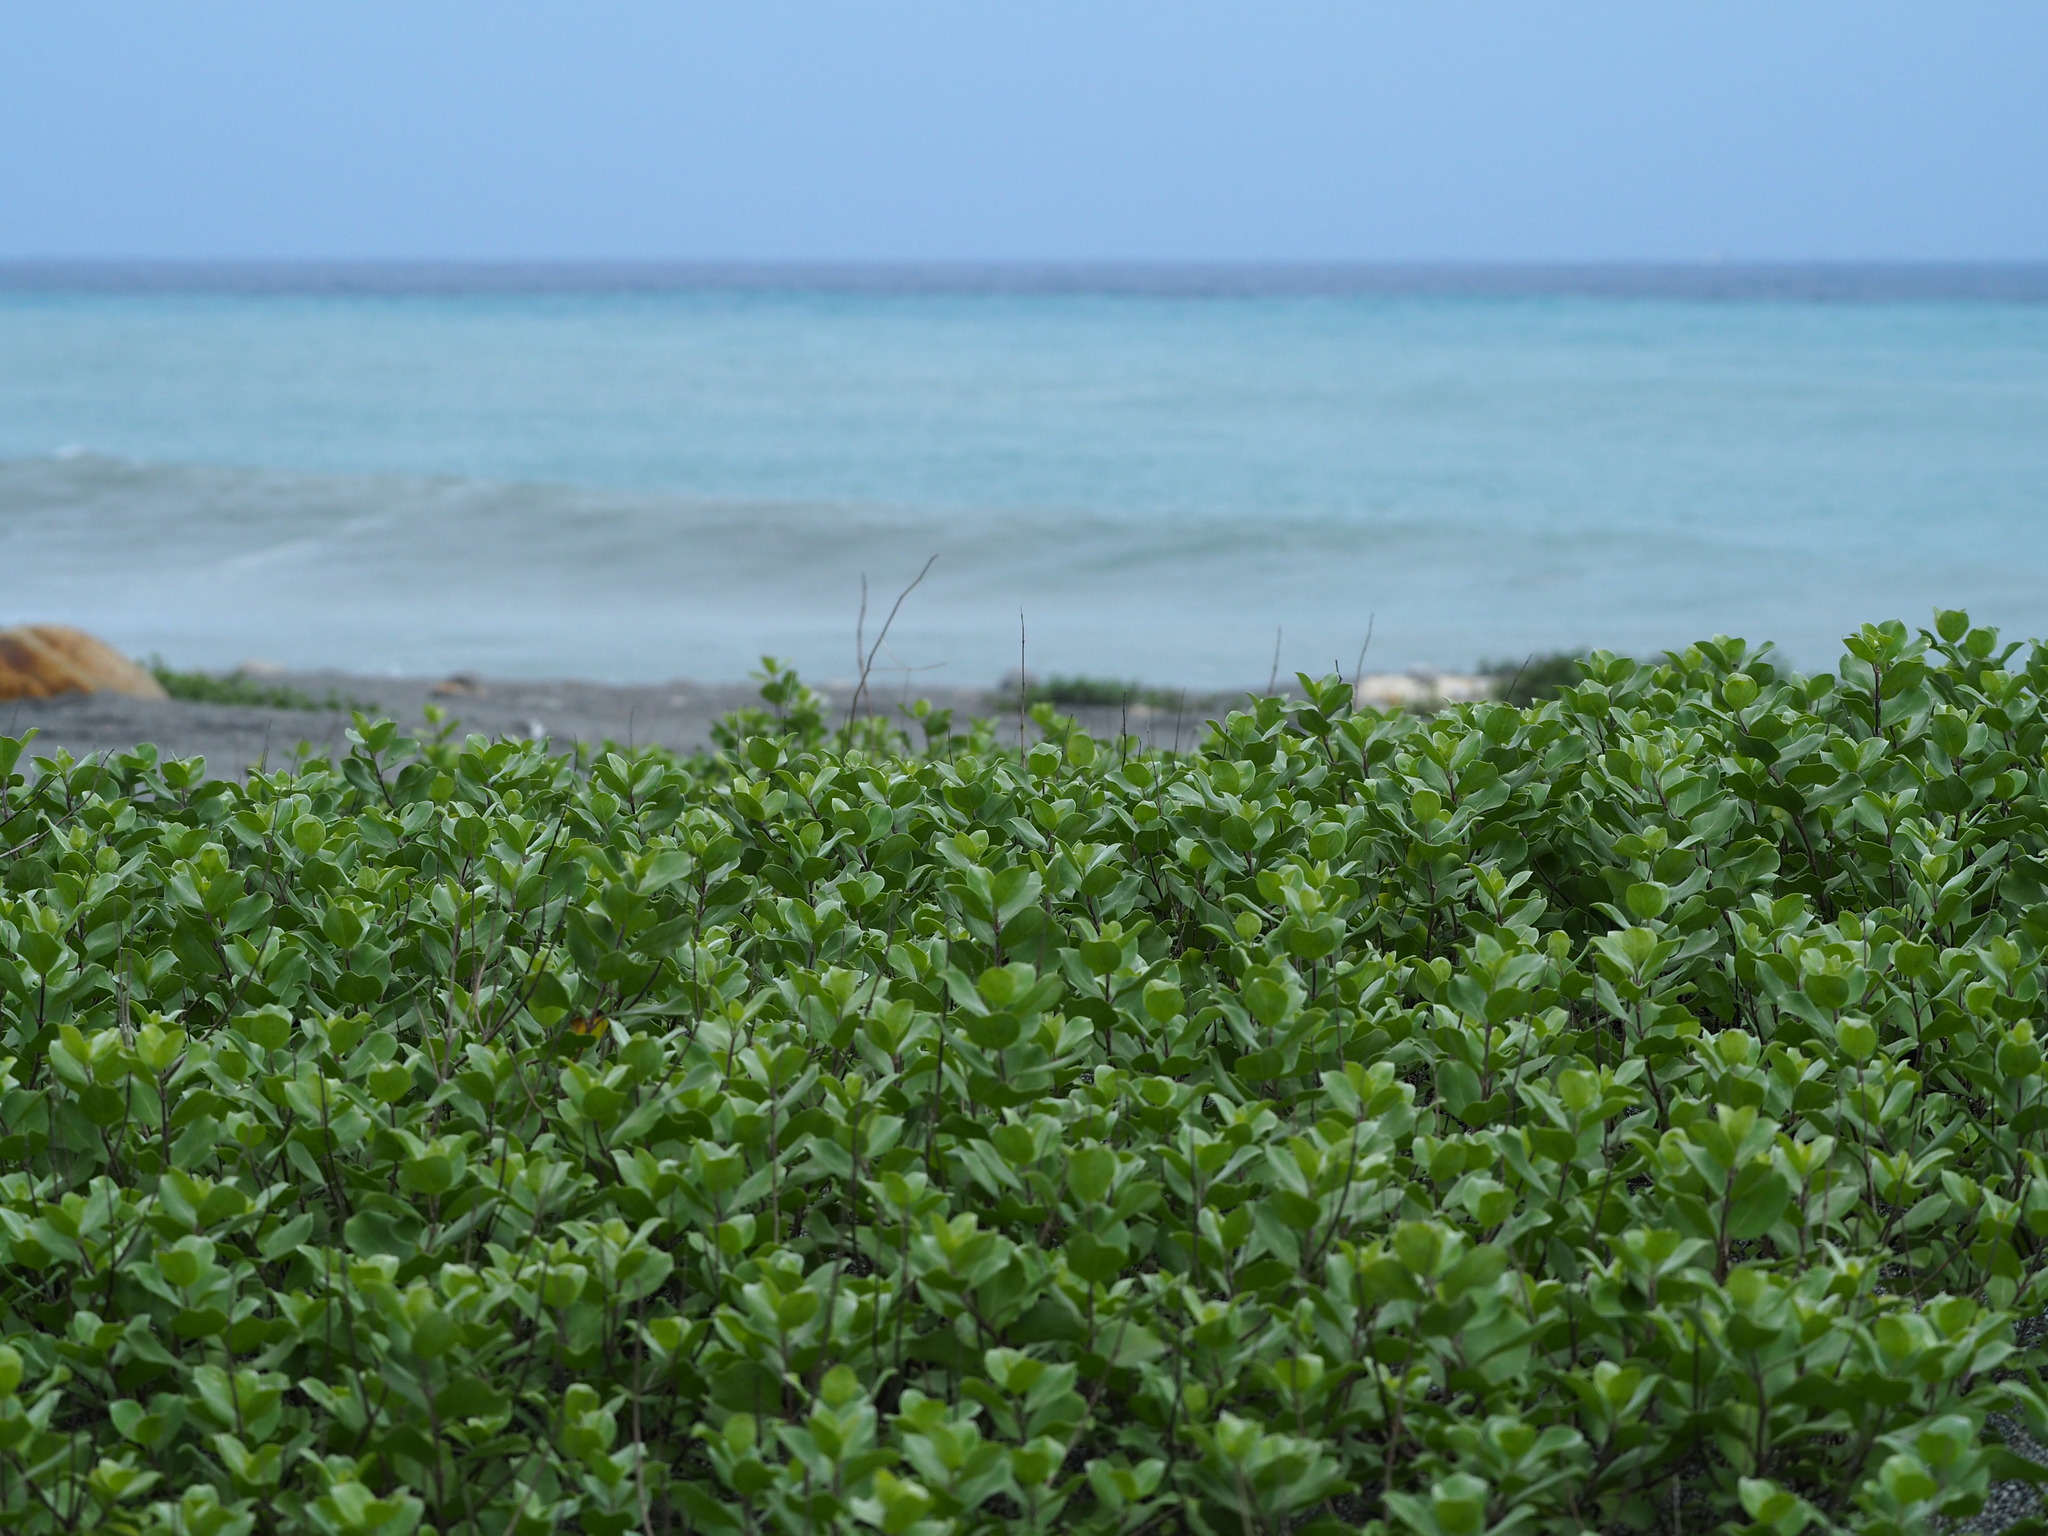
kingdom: Plantae
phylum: Tracheophyta
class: Magnoliopsida
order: Lamiales
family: Lamiaceae
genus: Vitex
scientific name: Vitex rotundifolia
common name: Beach vitex
